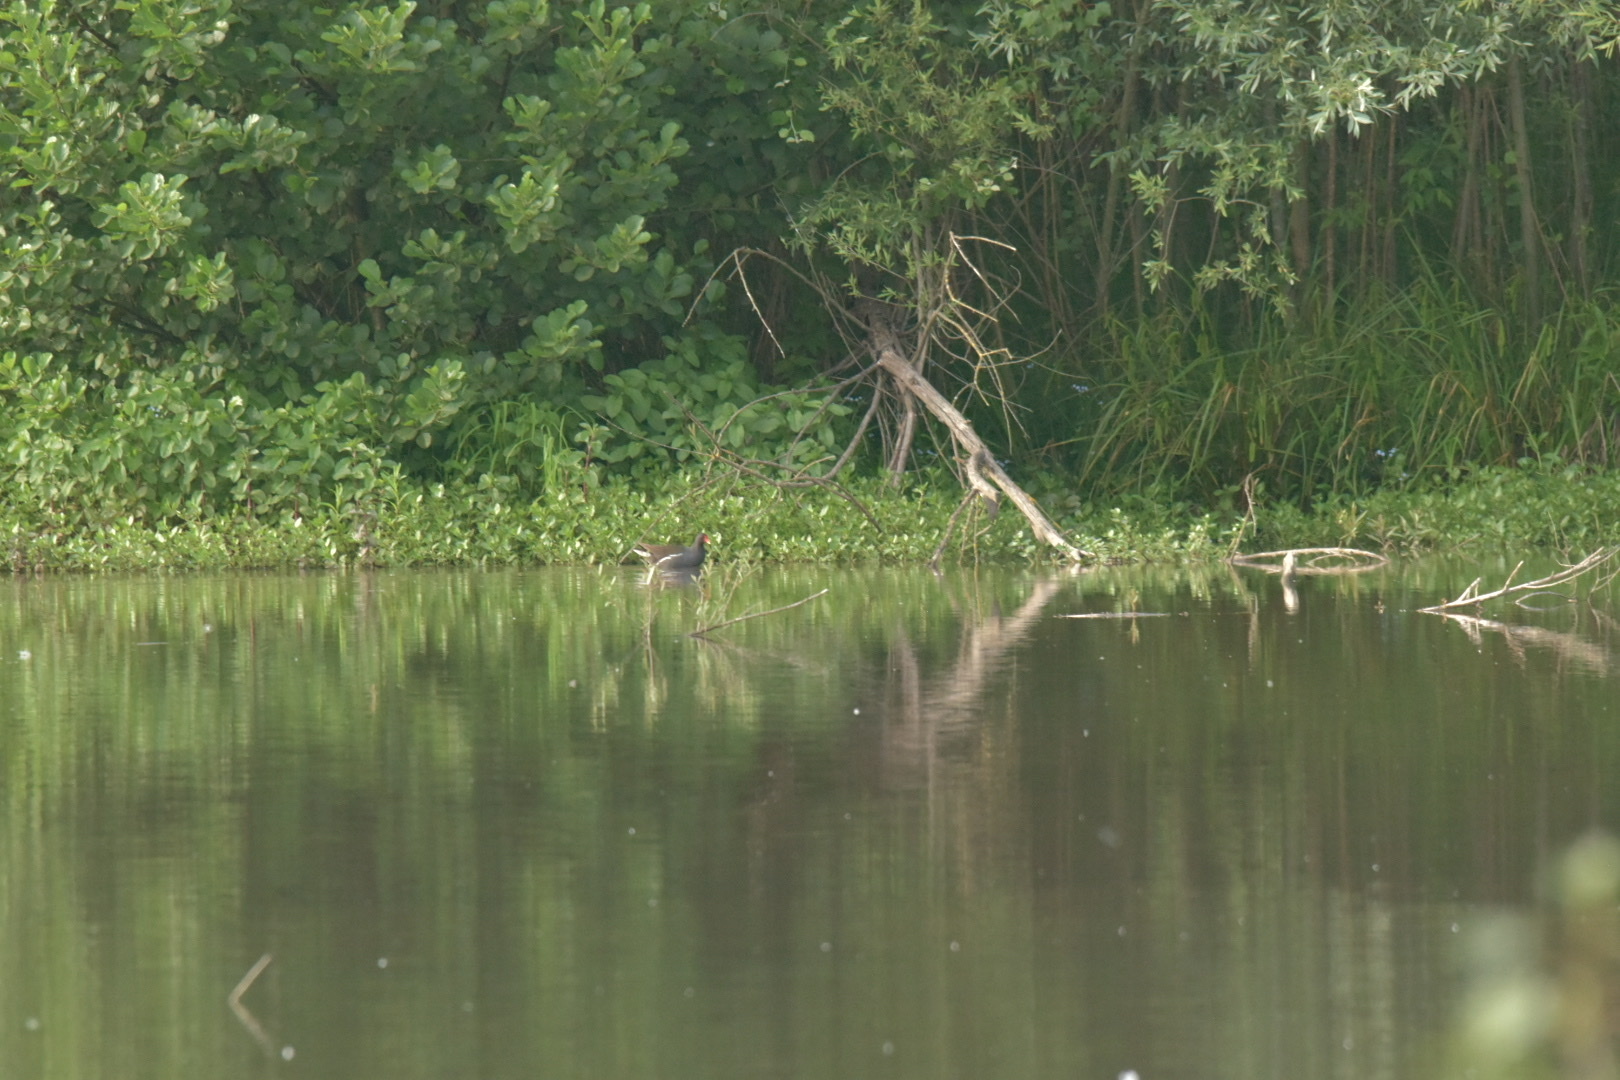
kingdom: Animalia
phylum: Chordata
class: Aves
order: Gruiformes
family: Rallidae
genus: Gallinula
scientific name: Gallinula chloropus
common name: Common moorhen
